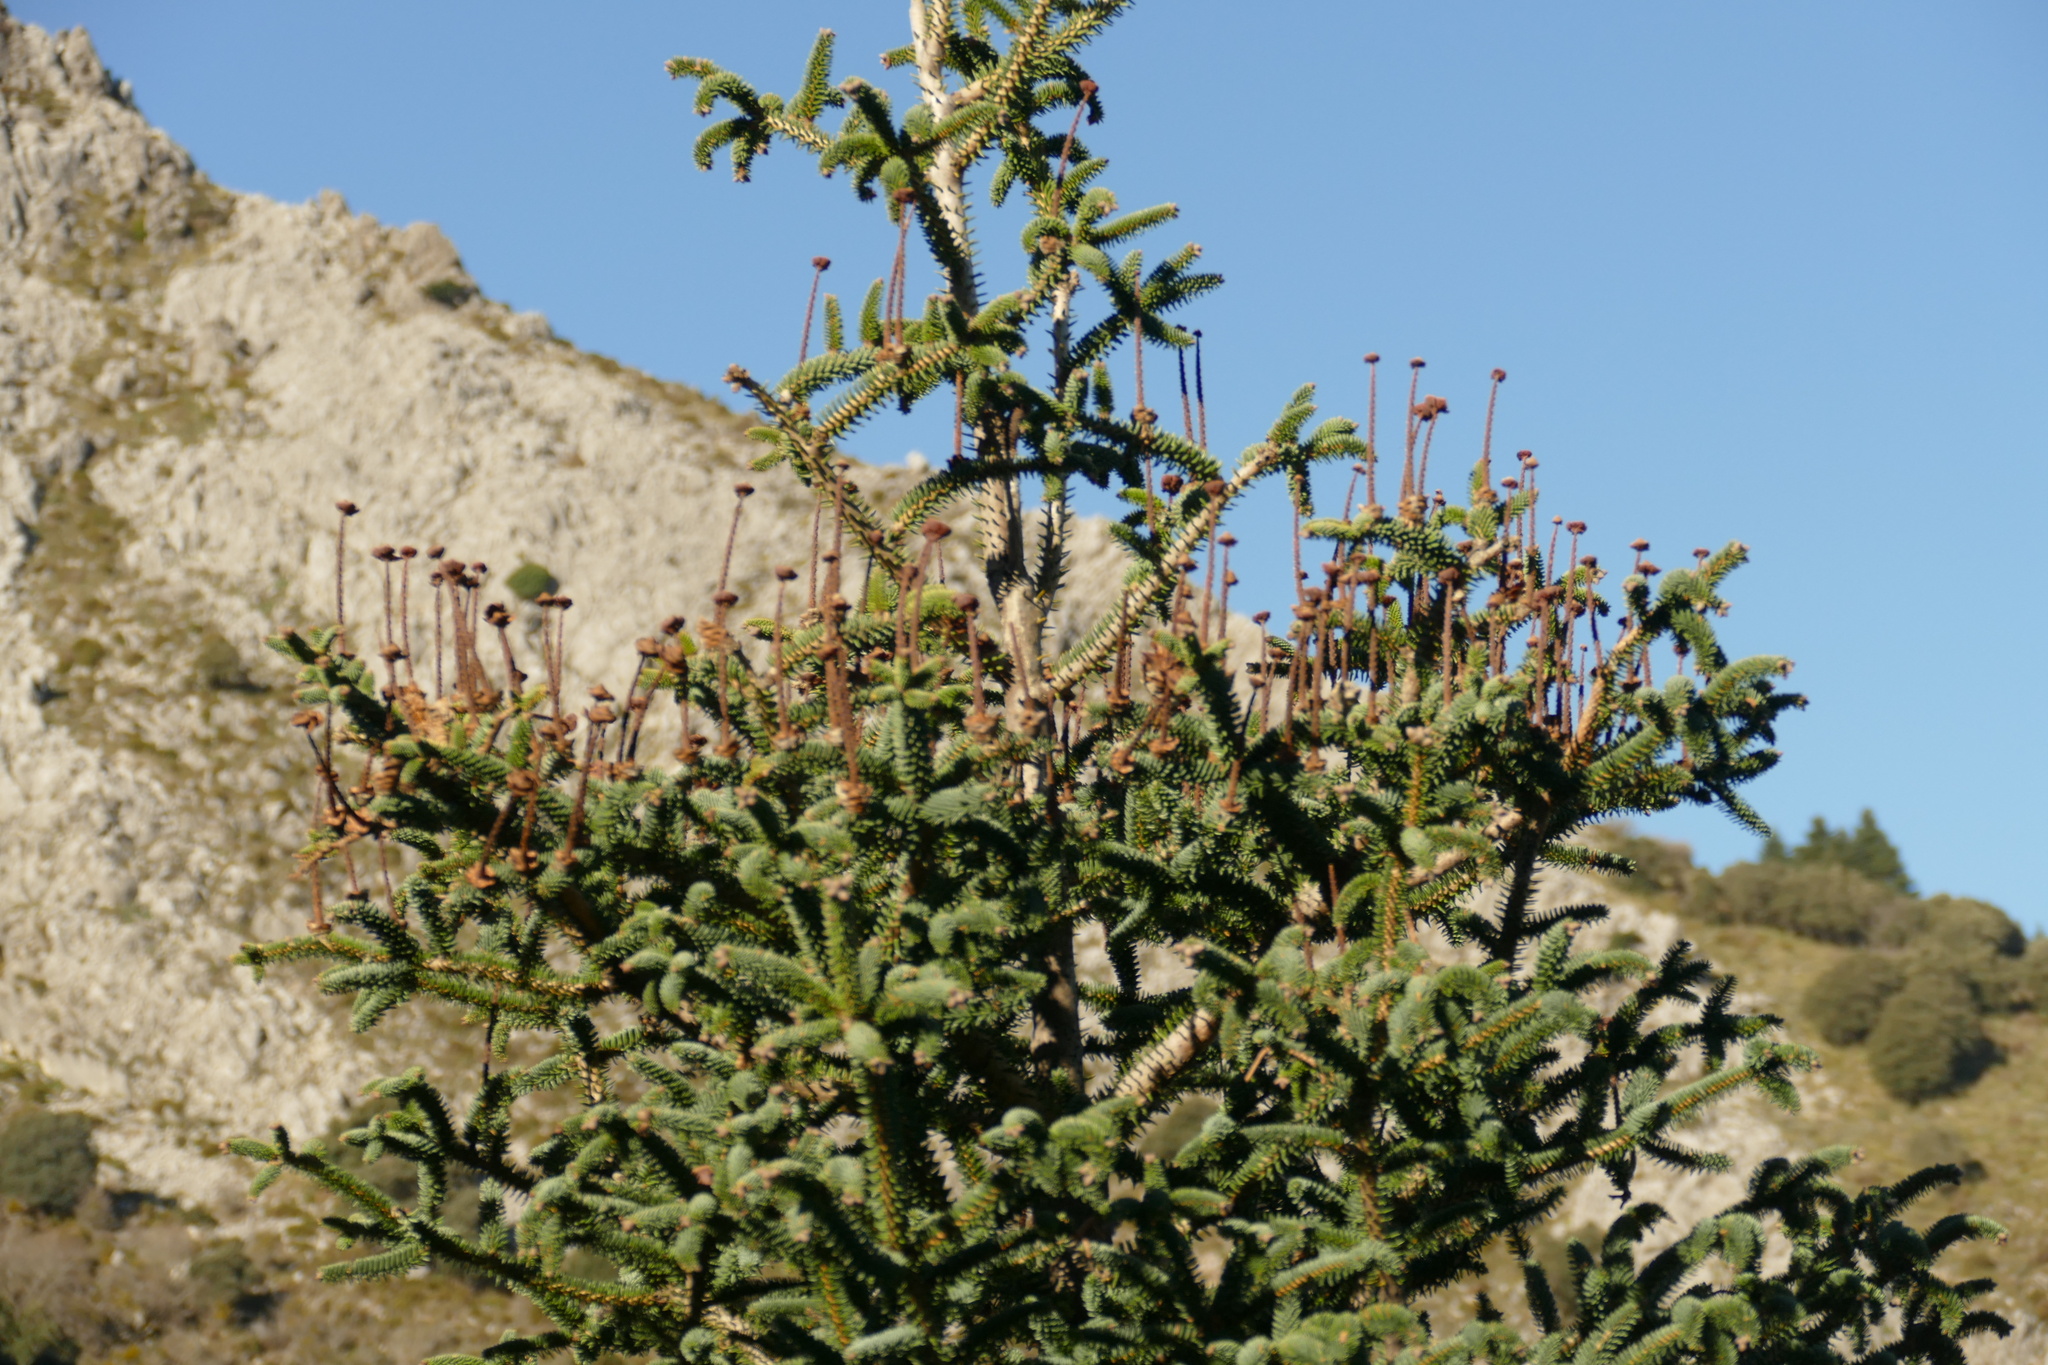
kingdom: Plantae
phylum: Tracheophyta
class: Pinopsida
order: Pinales
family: Pinaceae
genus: Abies
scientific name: Abies pinsapo
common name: Spanish fir
